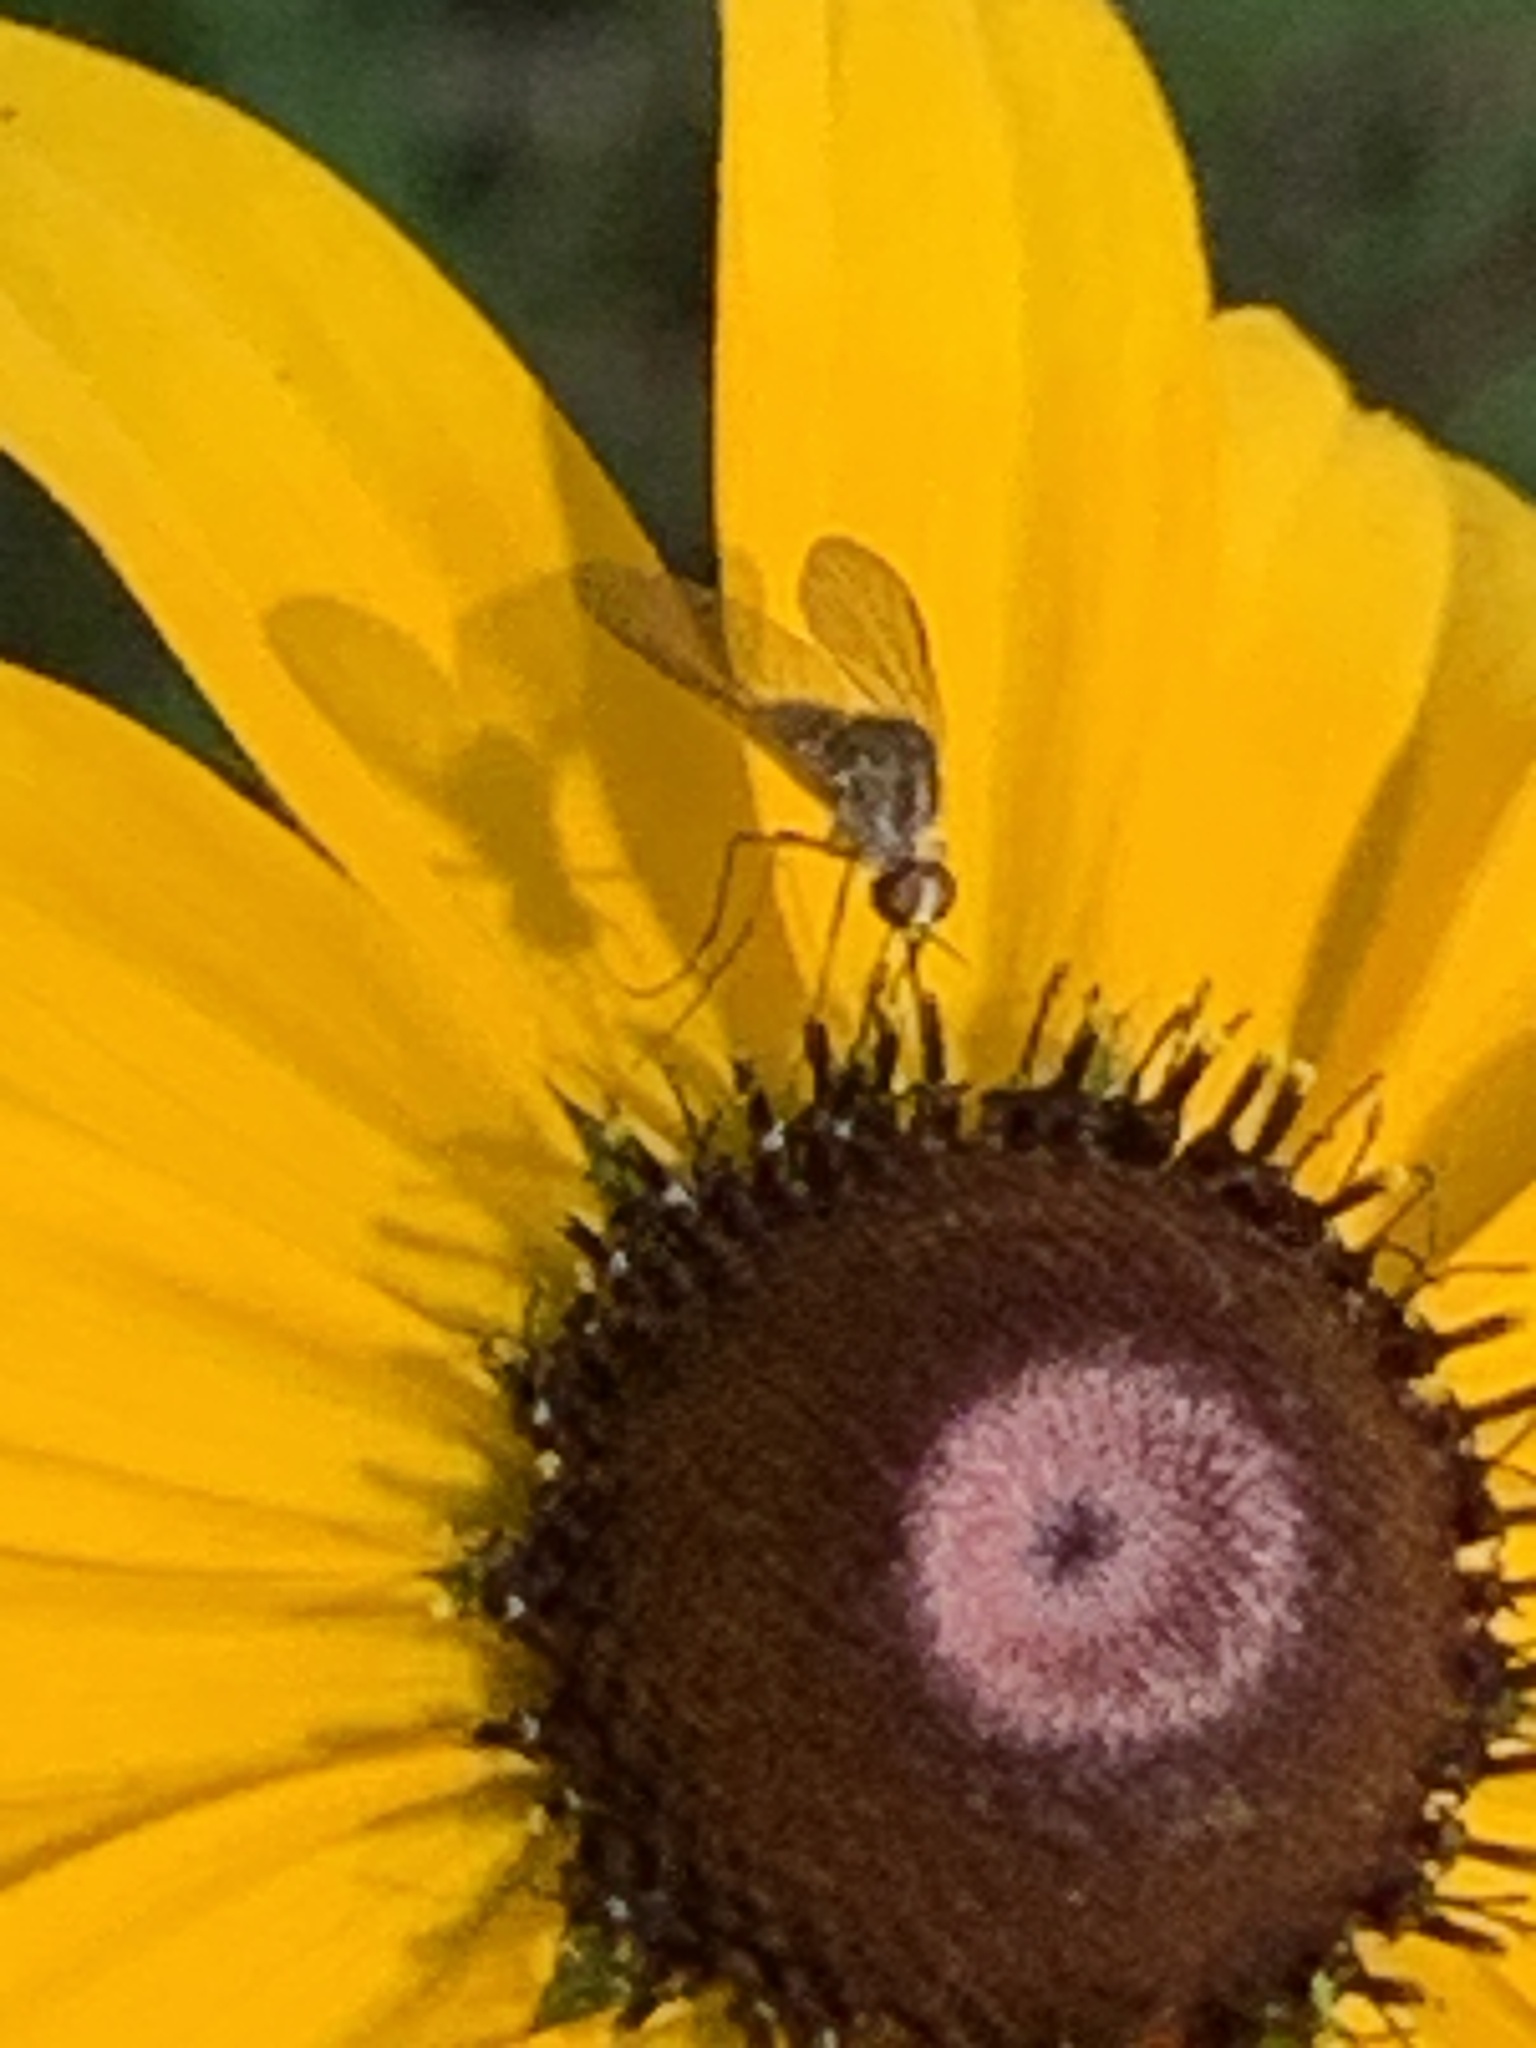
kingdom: Animalia
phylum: Arthropoda
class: Insecta
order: Diptera
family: Bombyliidae
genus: Geron
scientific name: Geron calvus
